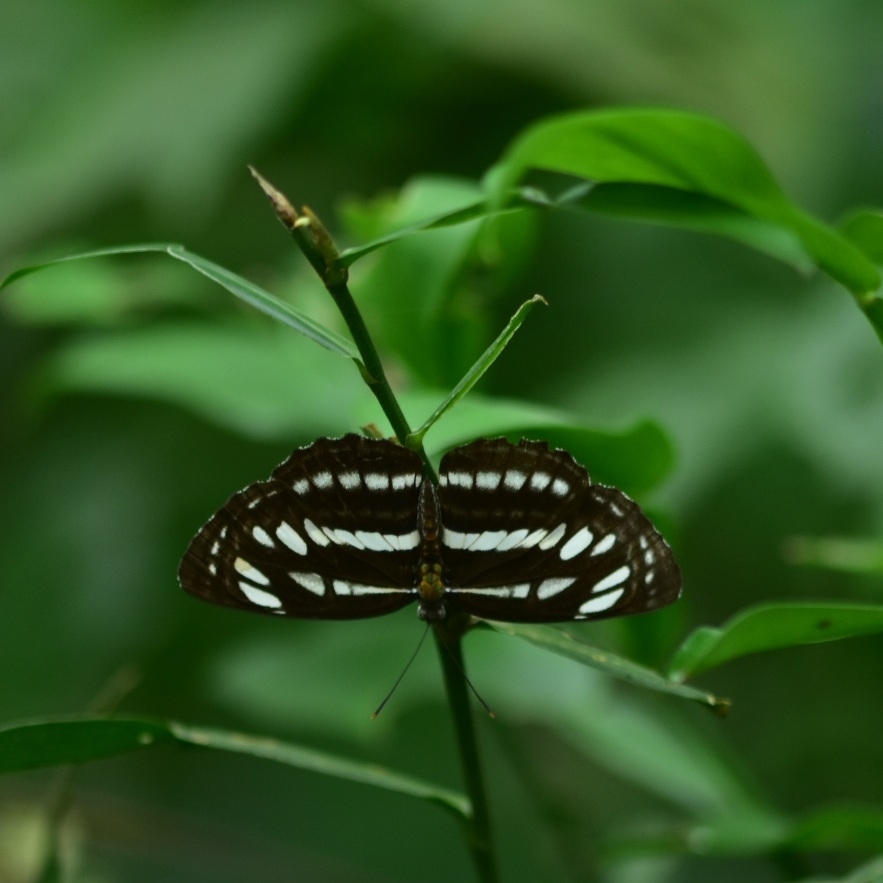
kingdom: Animalia
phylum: Arthropoda
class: Insecta
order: Lepidoptera
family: Nymphalidae
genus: Neptis
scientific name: Neptis hylas
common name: Common sailer
